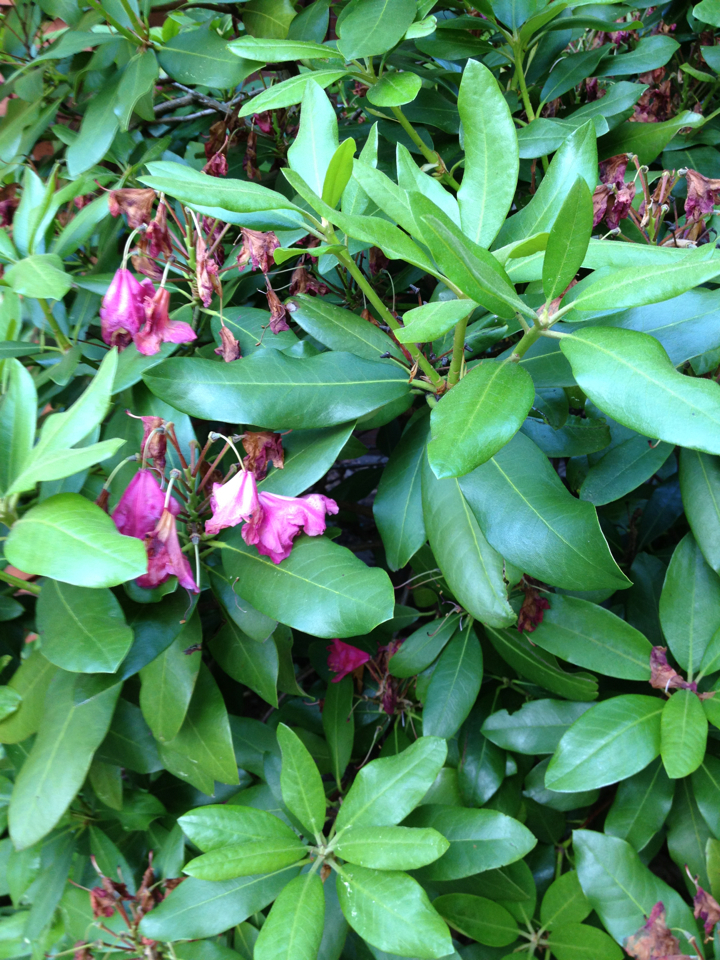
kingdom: Plantae
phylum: Tracheophyta
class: Magnoliopsida
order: Ericales
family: Ericaceae
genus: Rhododendron
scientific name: Rhododendron maximum
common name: Great rhododendron
